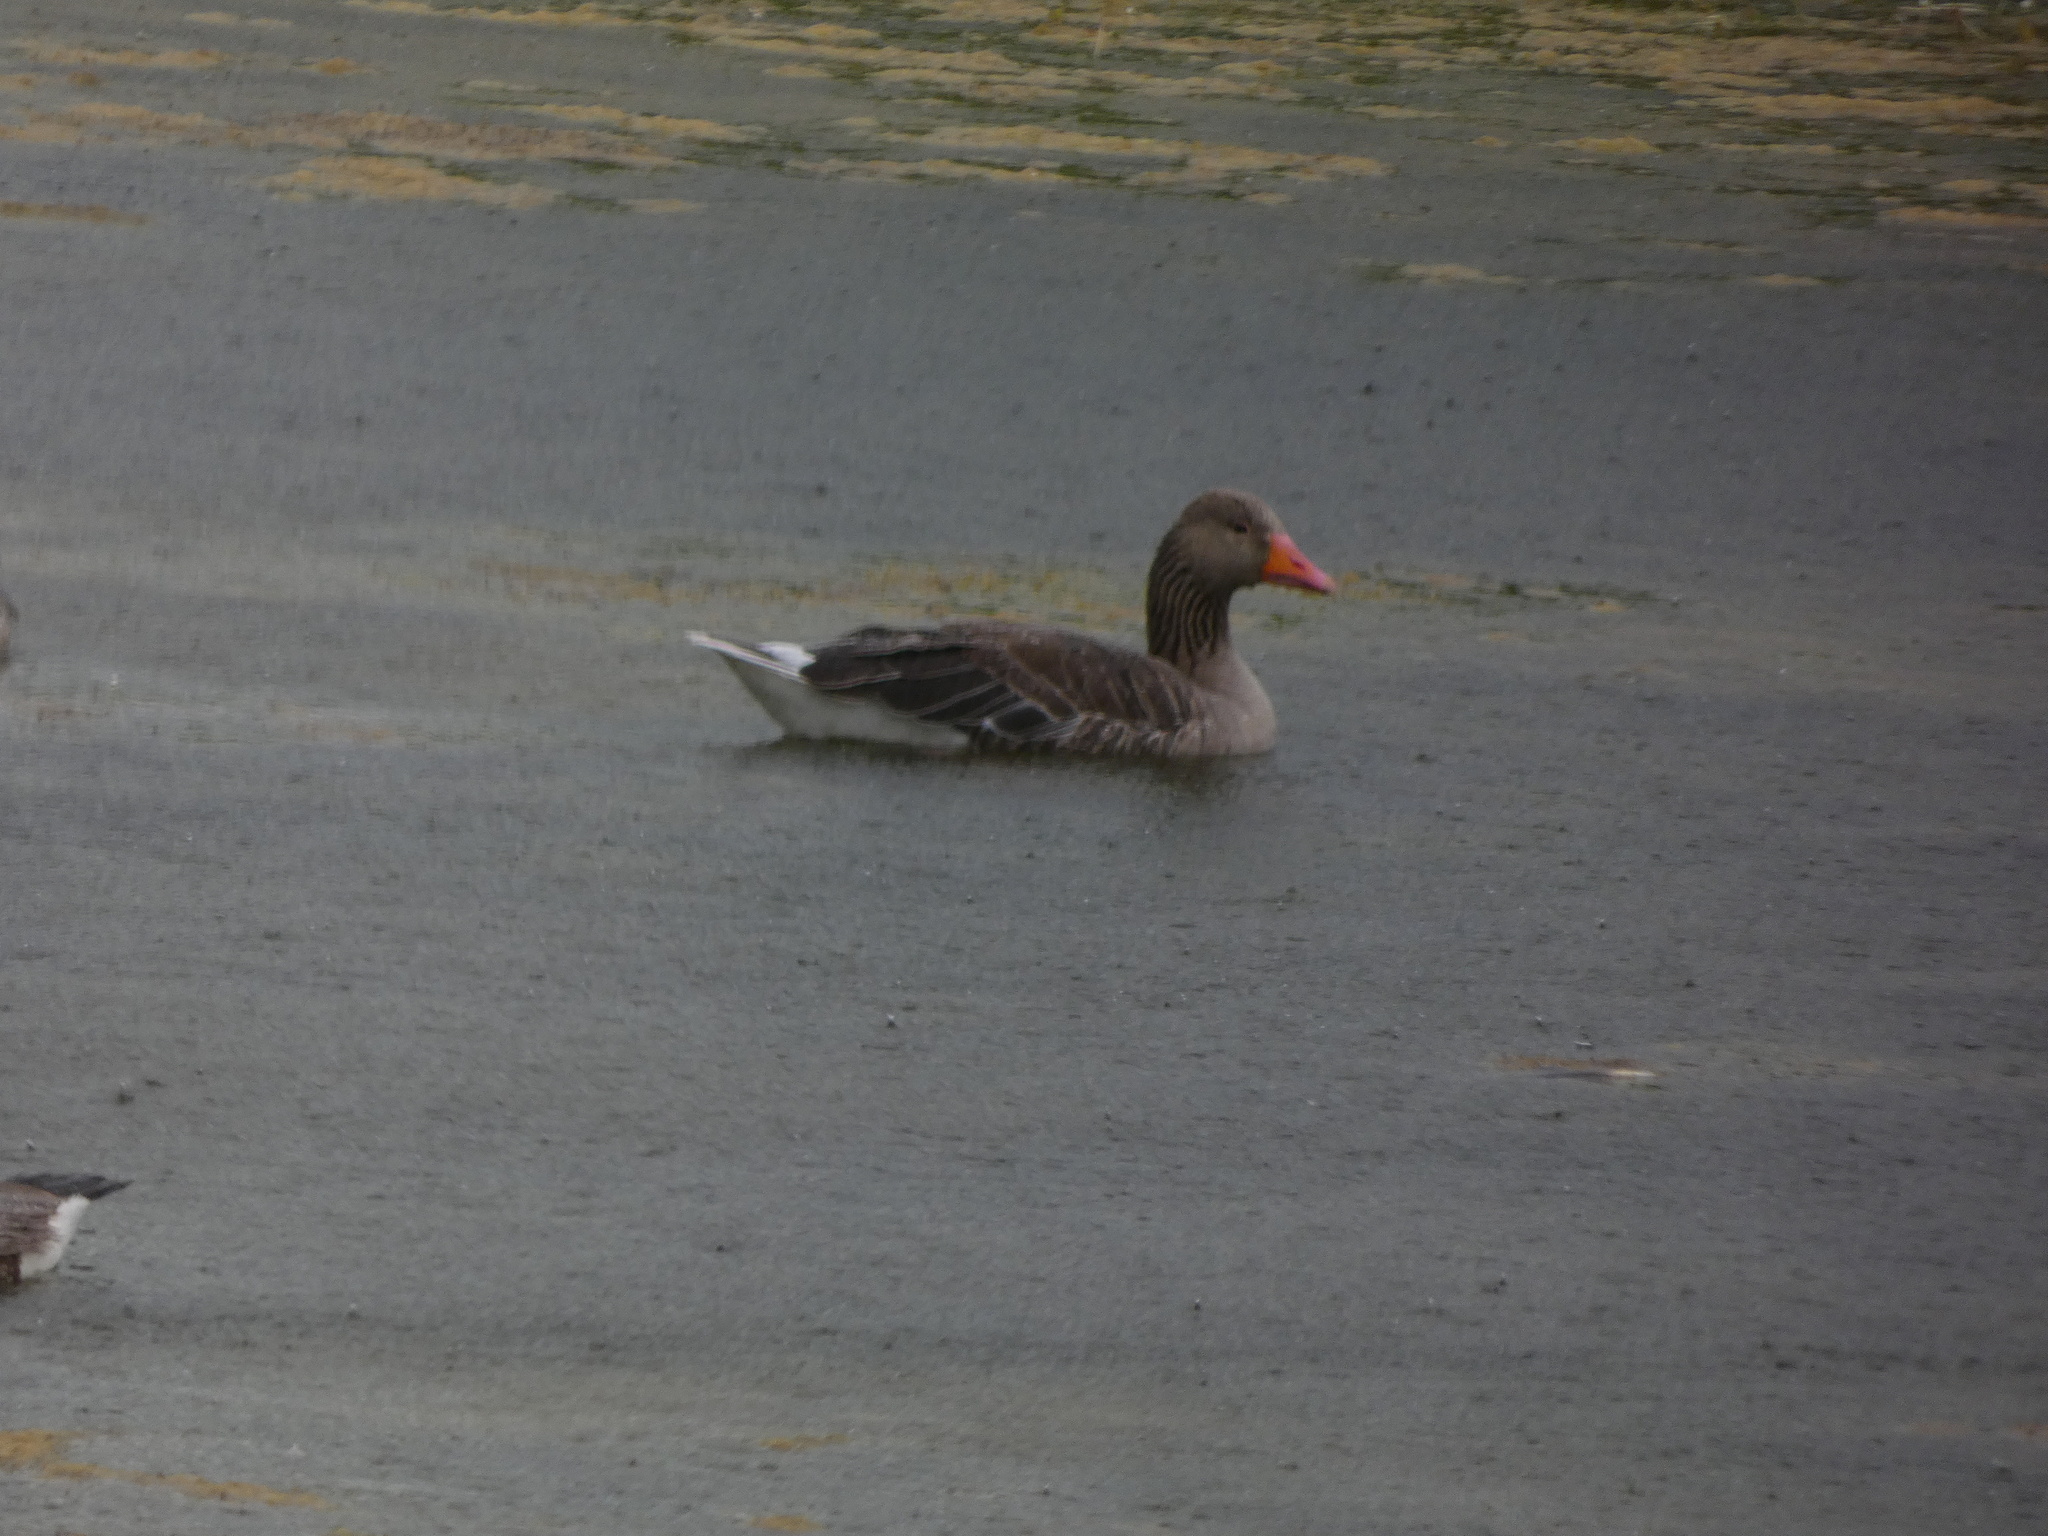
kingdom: Animalia
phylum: Chordata
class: Aves
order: Anseriformes
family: Anatidae
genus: Anser
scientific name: Anser anser
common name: Greylag goose
